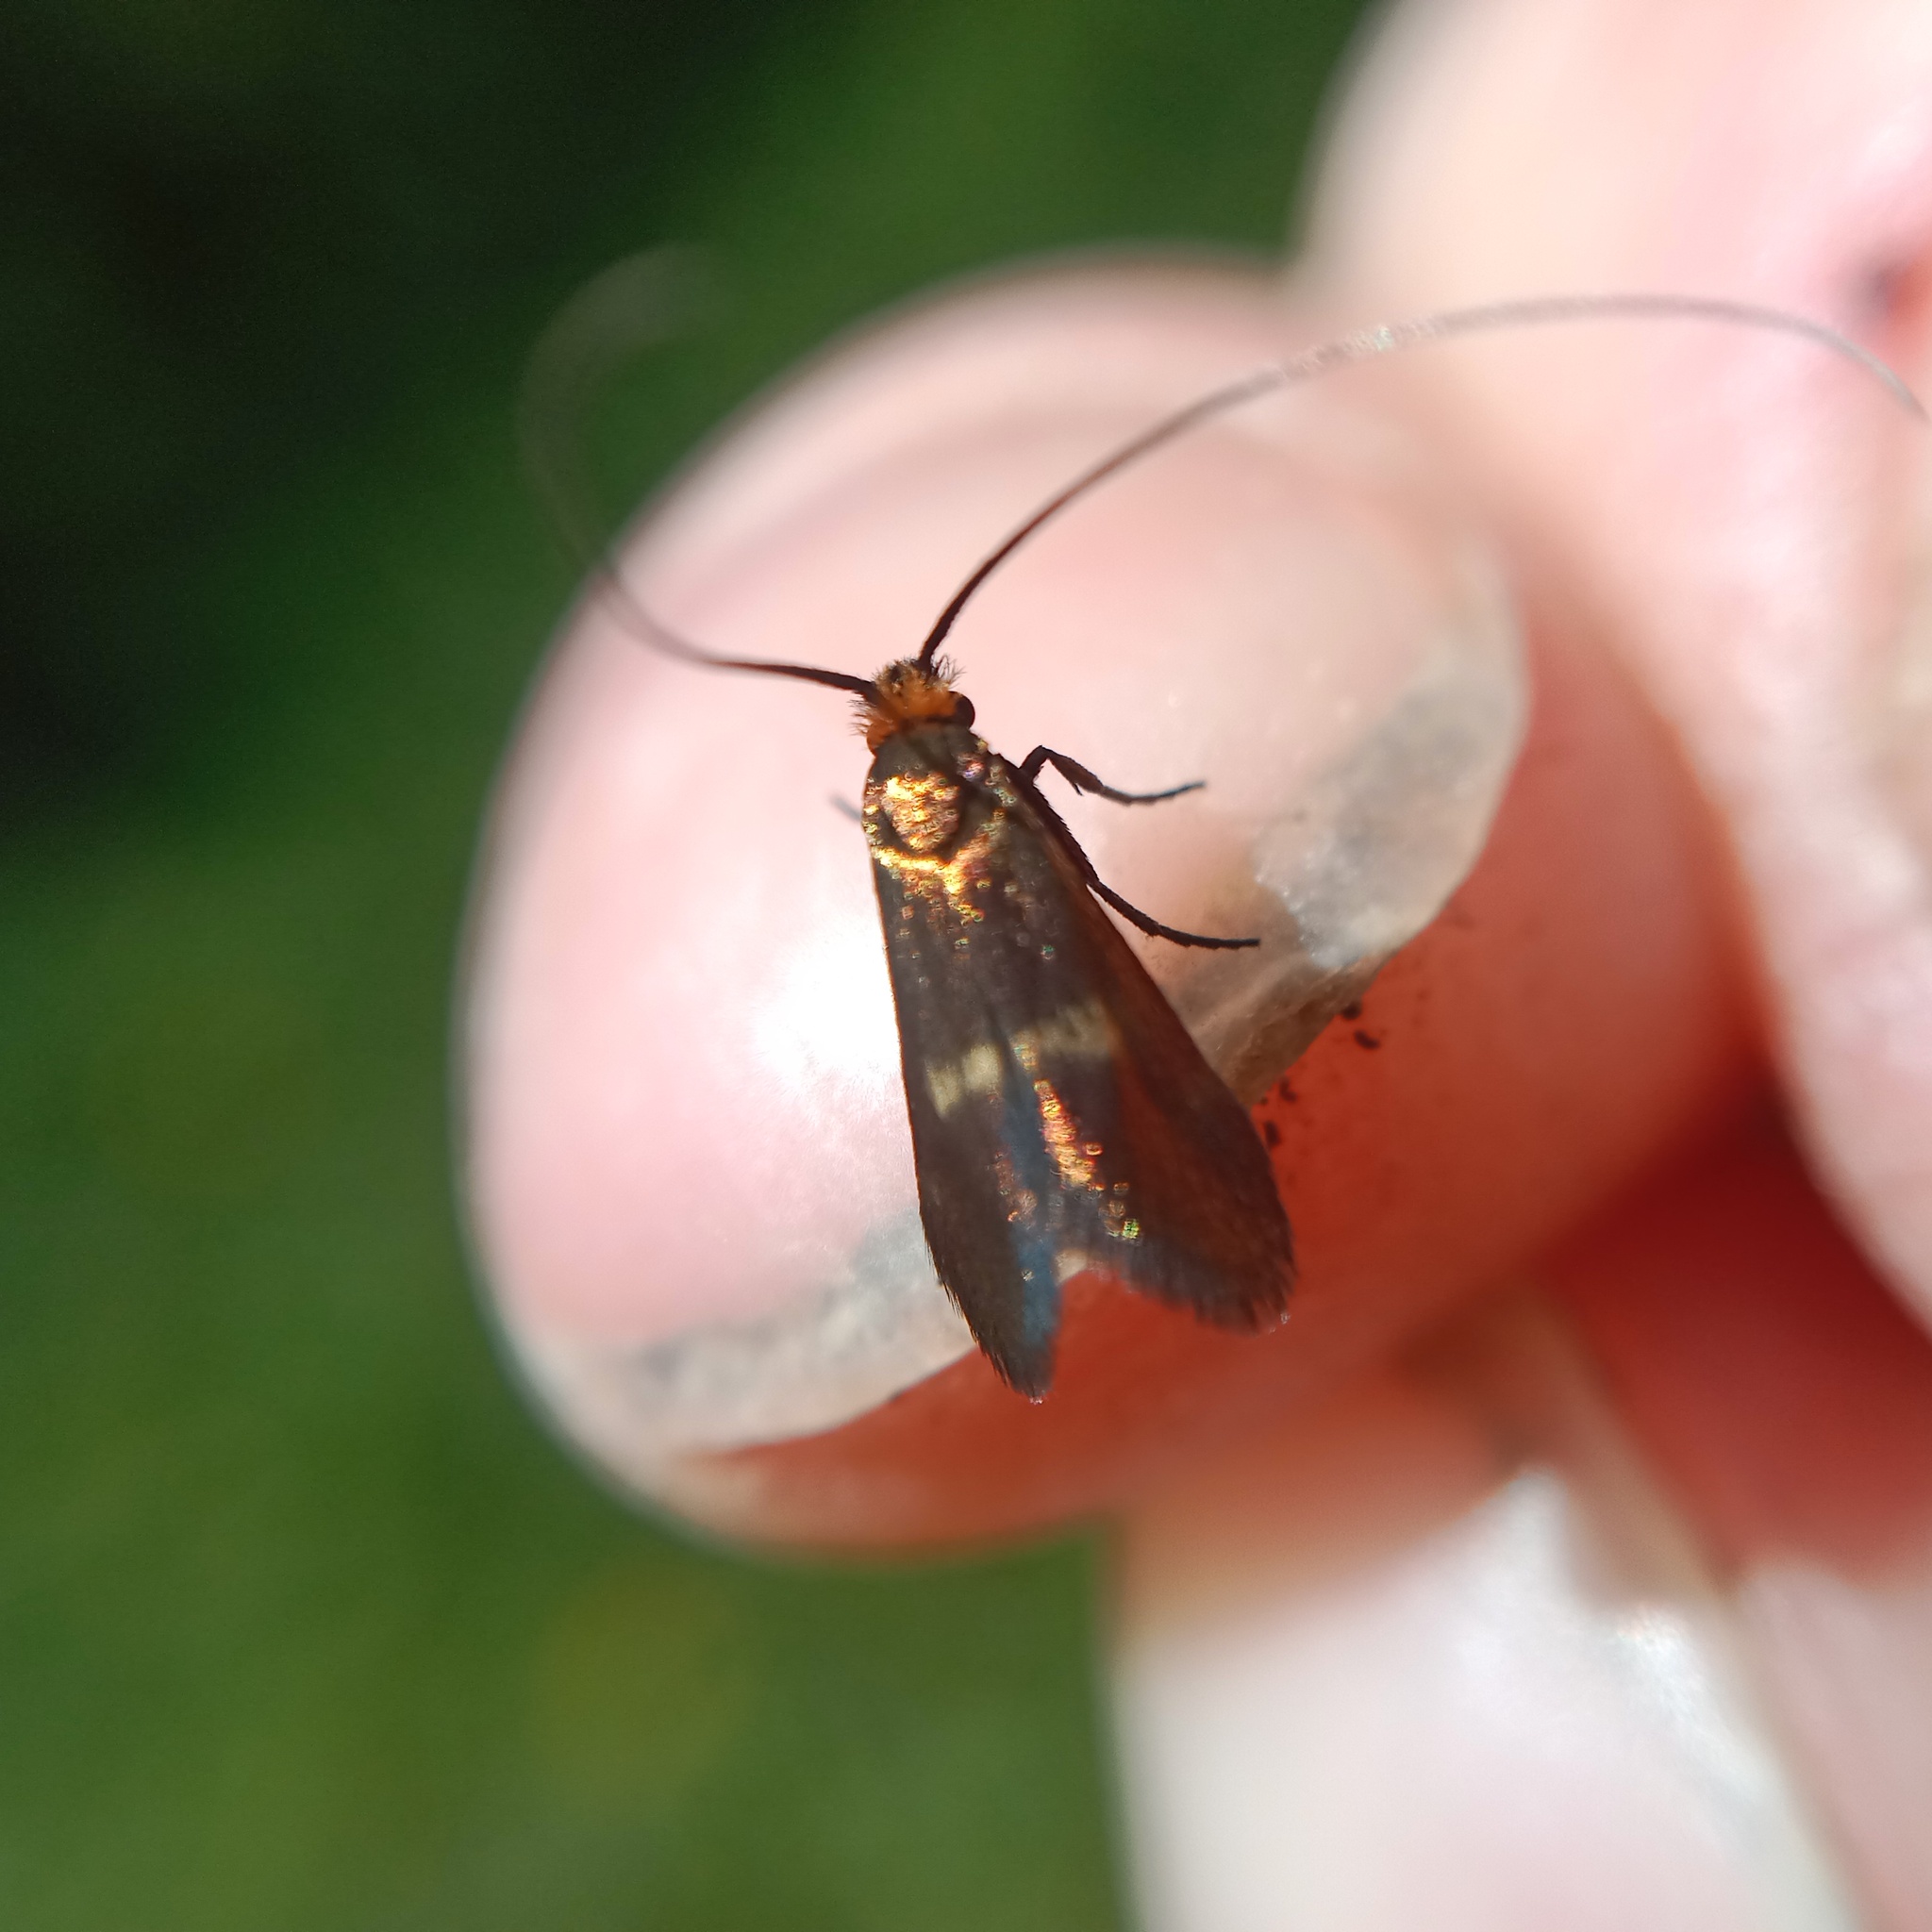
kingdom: Animalia
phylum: Arthropoda
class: Insecta
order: Lepidoptera
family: Adelidae
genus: Cauchas
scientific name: Cauchas rufimitrella
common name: Meadow long-horn
